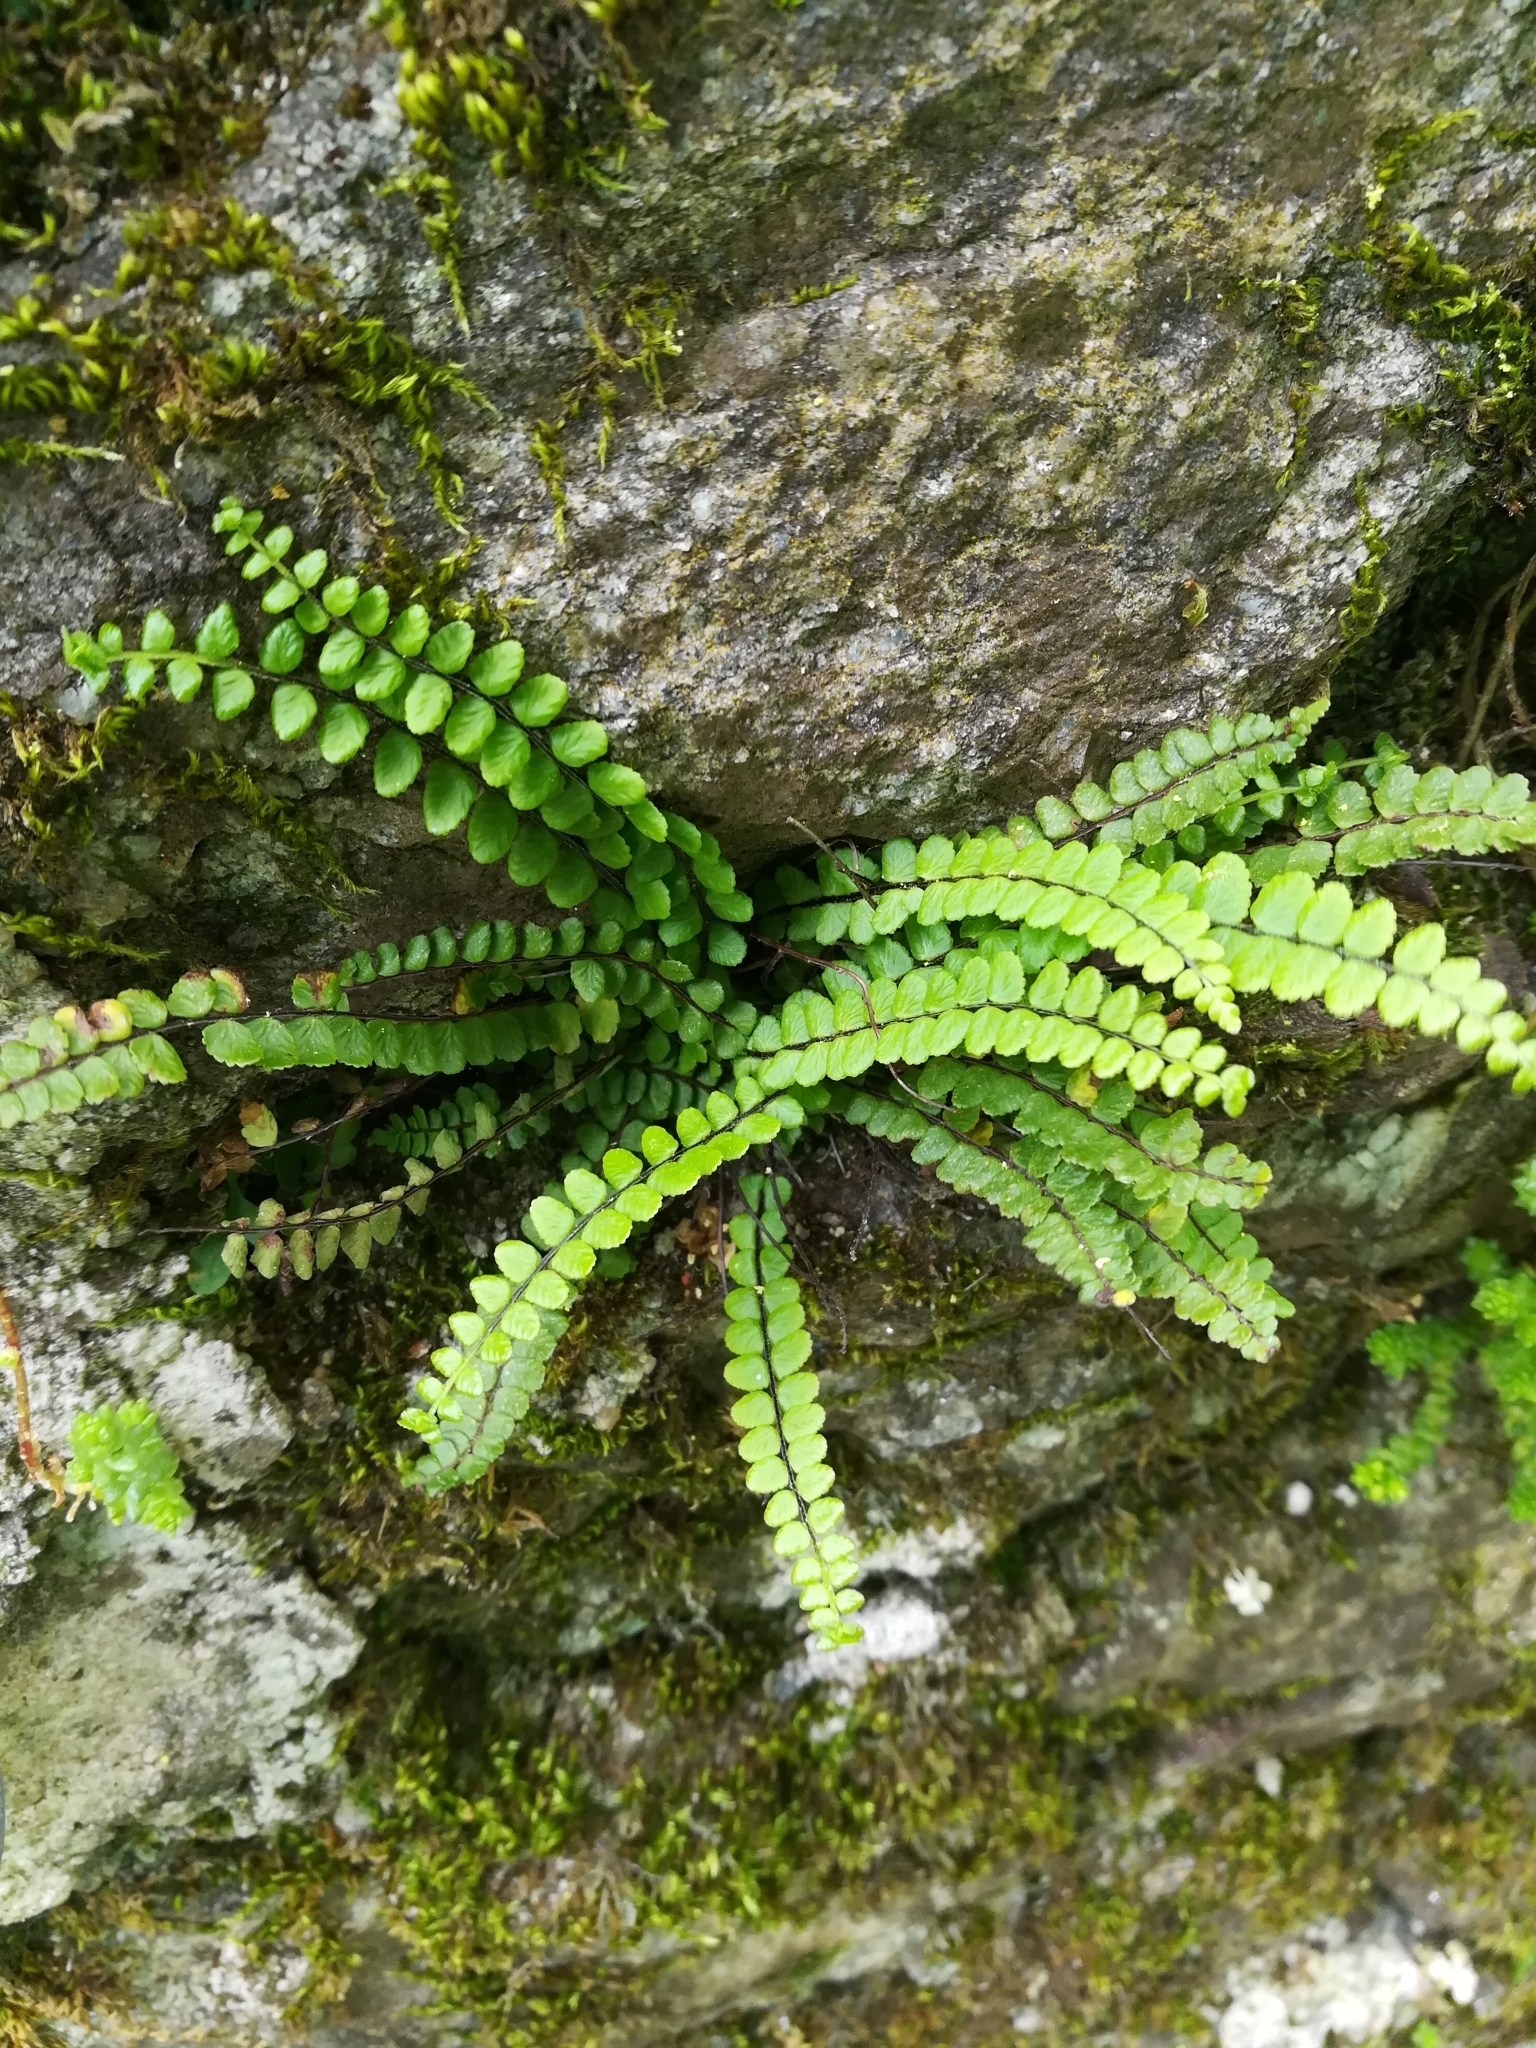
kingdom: Plantae
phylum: Tracheophyta
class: Polypodiopsida
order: Polypodiales
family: Aspleniaceae
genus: Asplenium
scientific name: Asplenium trichomanes
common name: Maidenhair spleenwort
